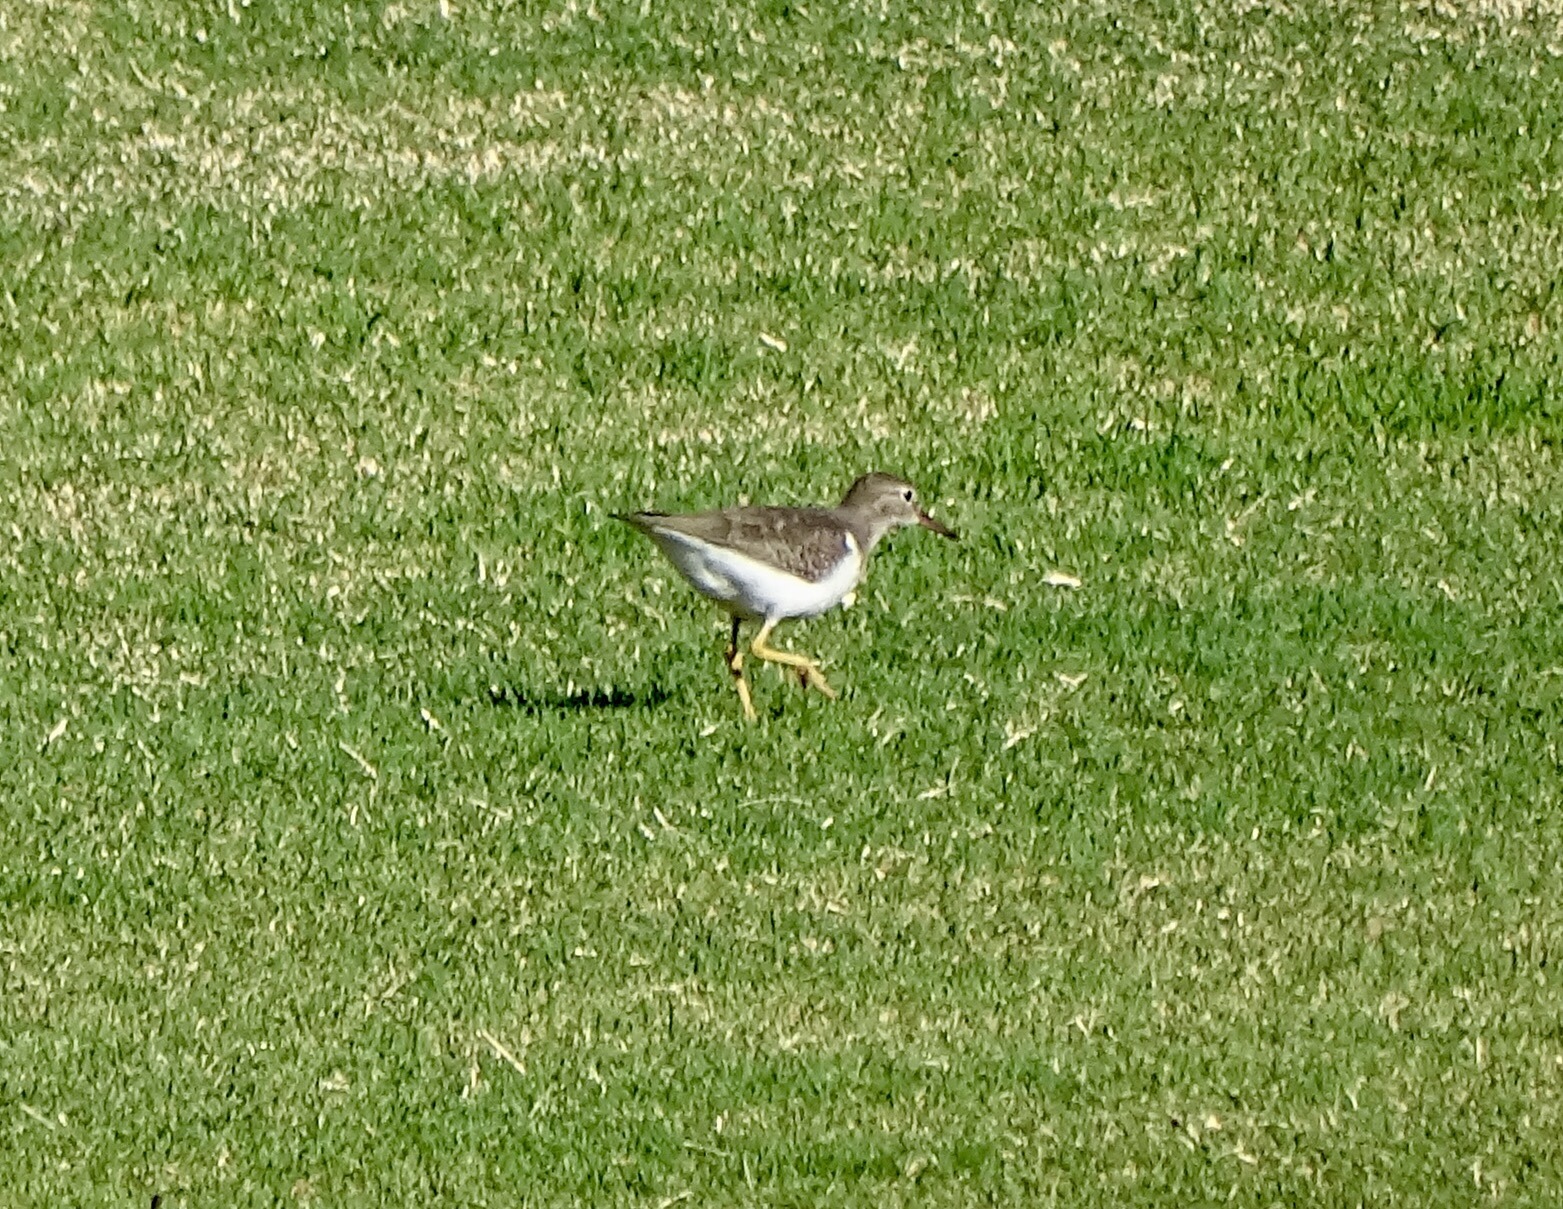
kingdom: Animalia
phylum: Chordata
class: Aves
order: Charadriiformes
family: Scolopacidae
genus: Actitis
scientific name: Actitis macularius
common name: Spotted sandpiper
